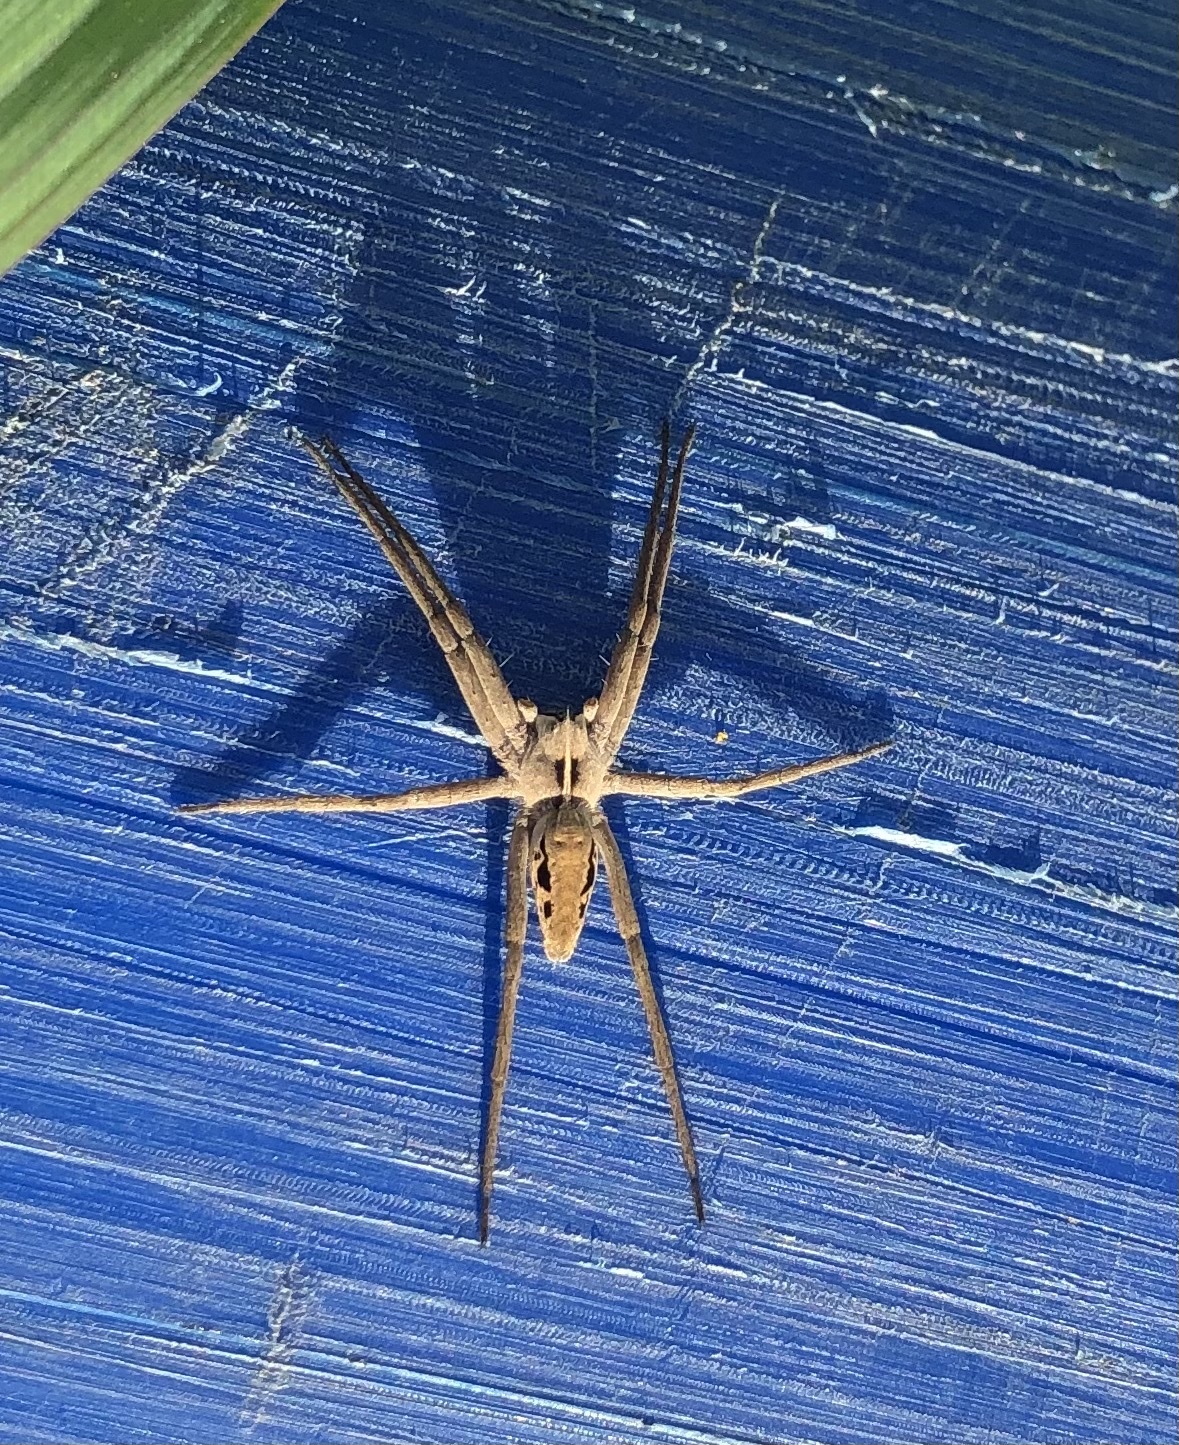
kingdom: Animalia
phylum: Arthropoda
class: Arachnida
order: Araneae
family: Pisauridae
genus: Pisaura
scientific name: Pisaura mirabilis
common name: Tent spider
